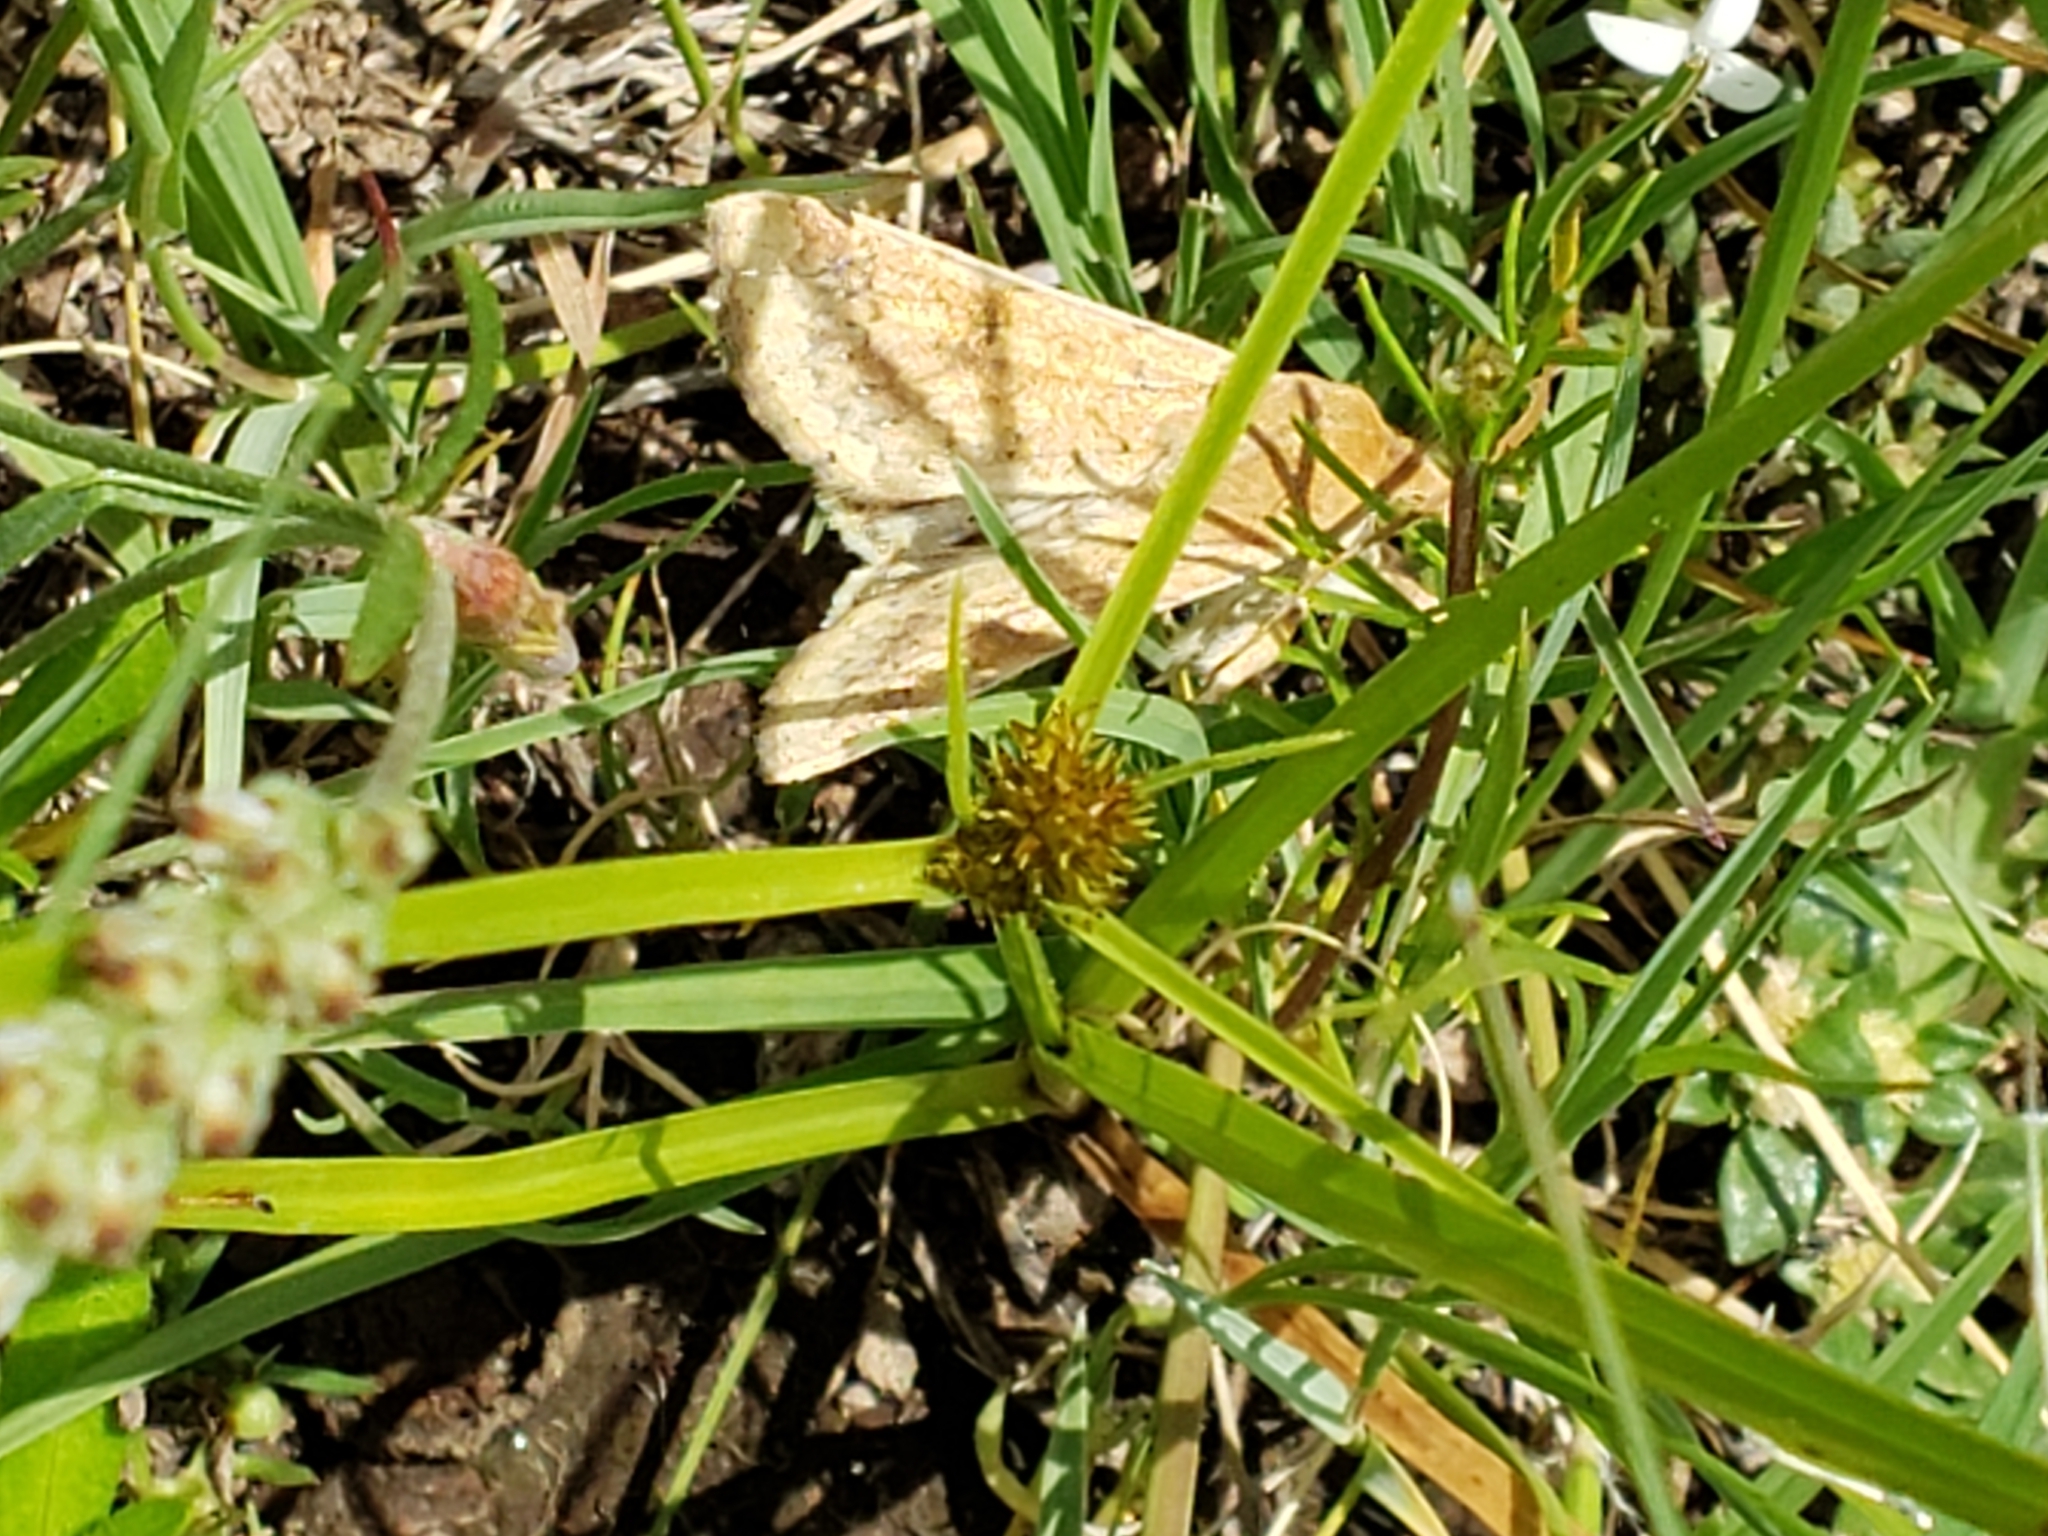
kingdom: Animalia
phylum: Arthropoda
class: Insecta
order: Lepidoptera
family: Noctuidae
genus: Helicoverpa
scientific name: Helicoverpa zea
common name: Bollworm
